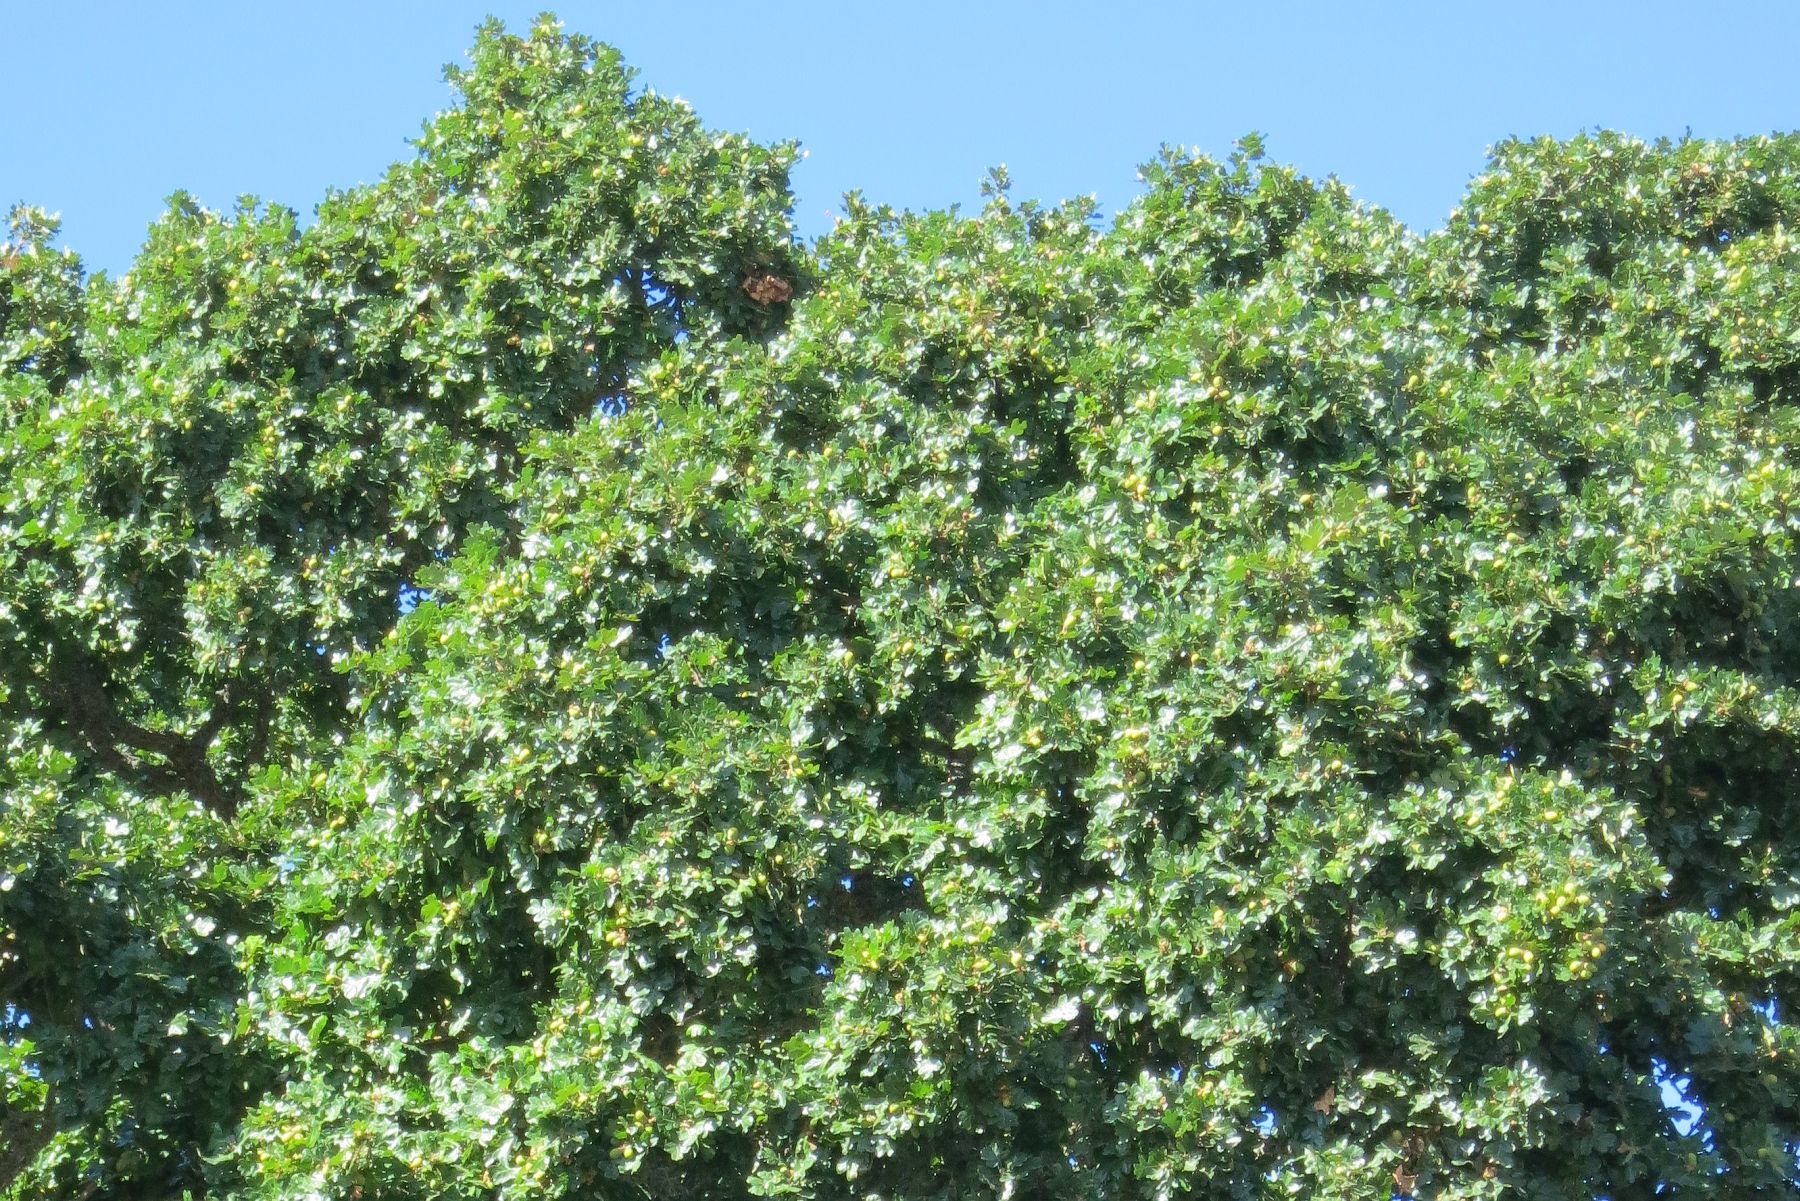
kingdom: Plantae
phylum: Tracheophyta
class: Magnoliopsida
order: Fagales
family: Fagaceae
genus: Quercus
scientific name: Quercus garryana
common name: Garry oak
